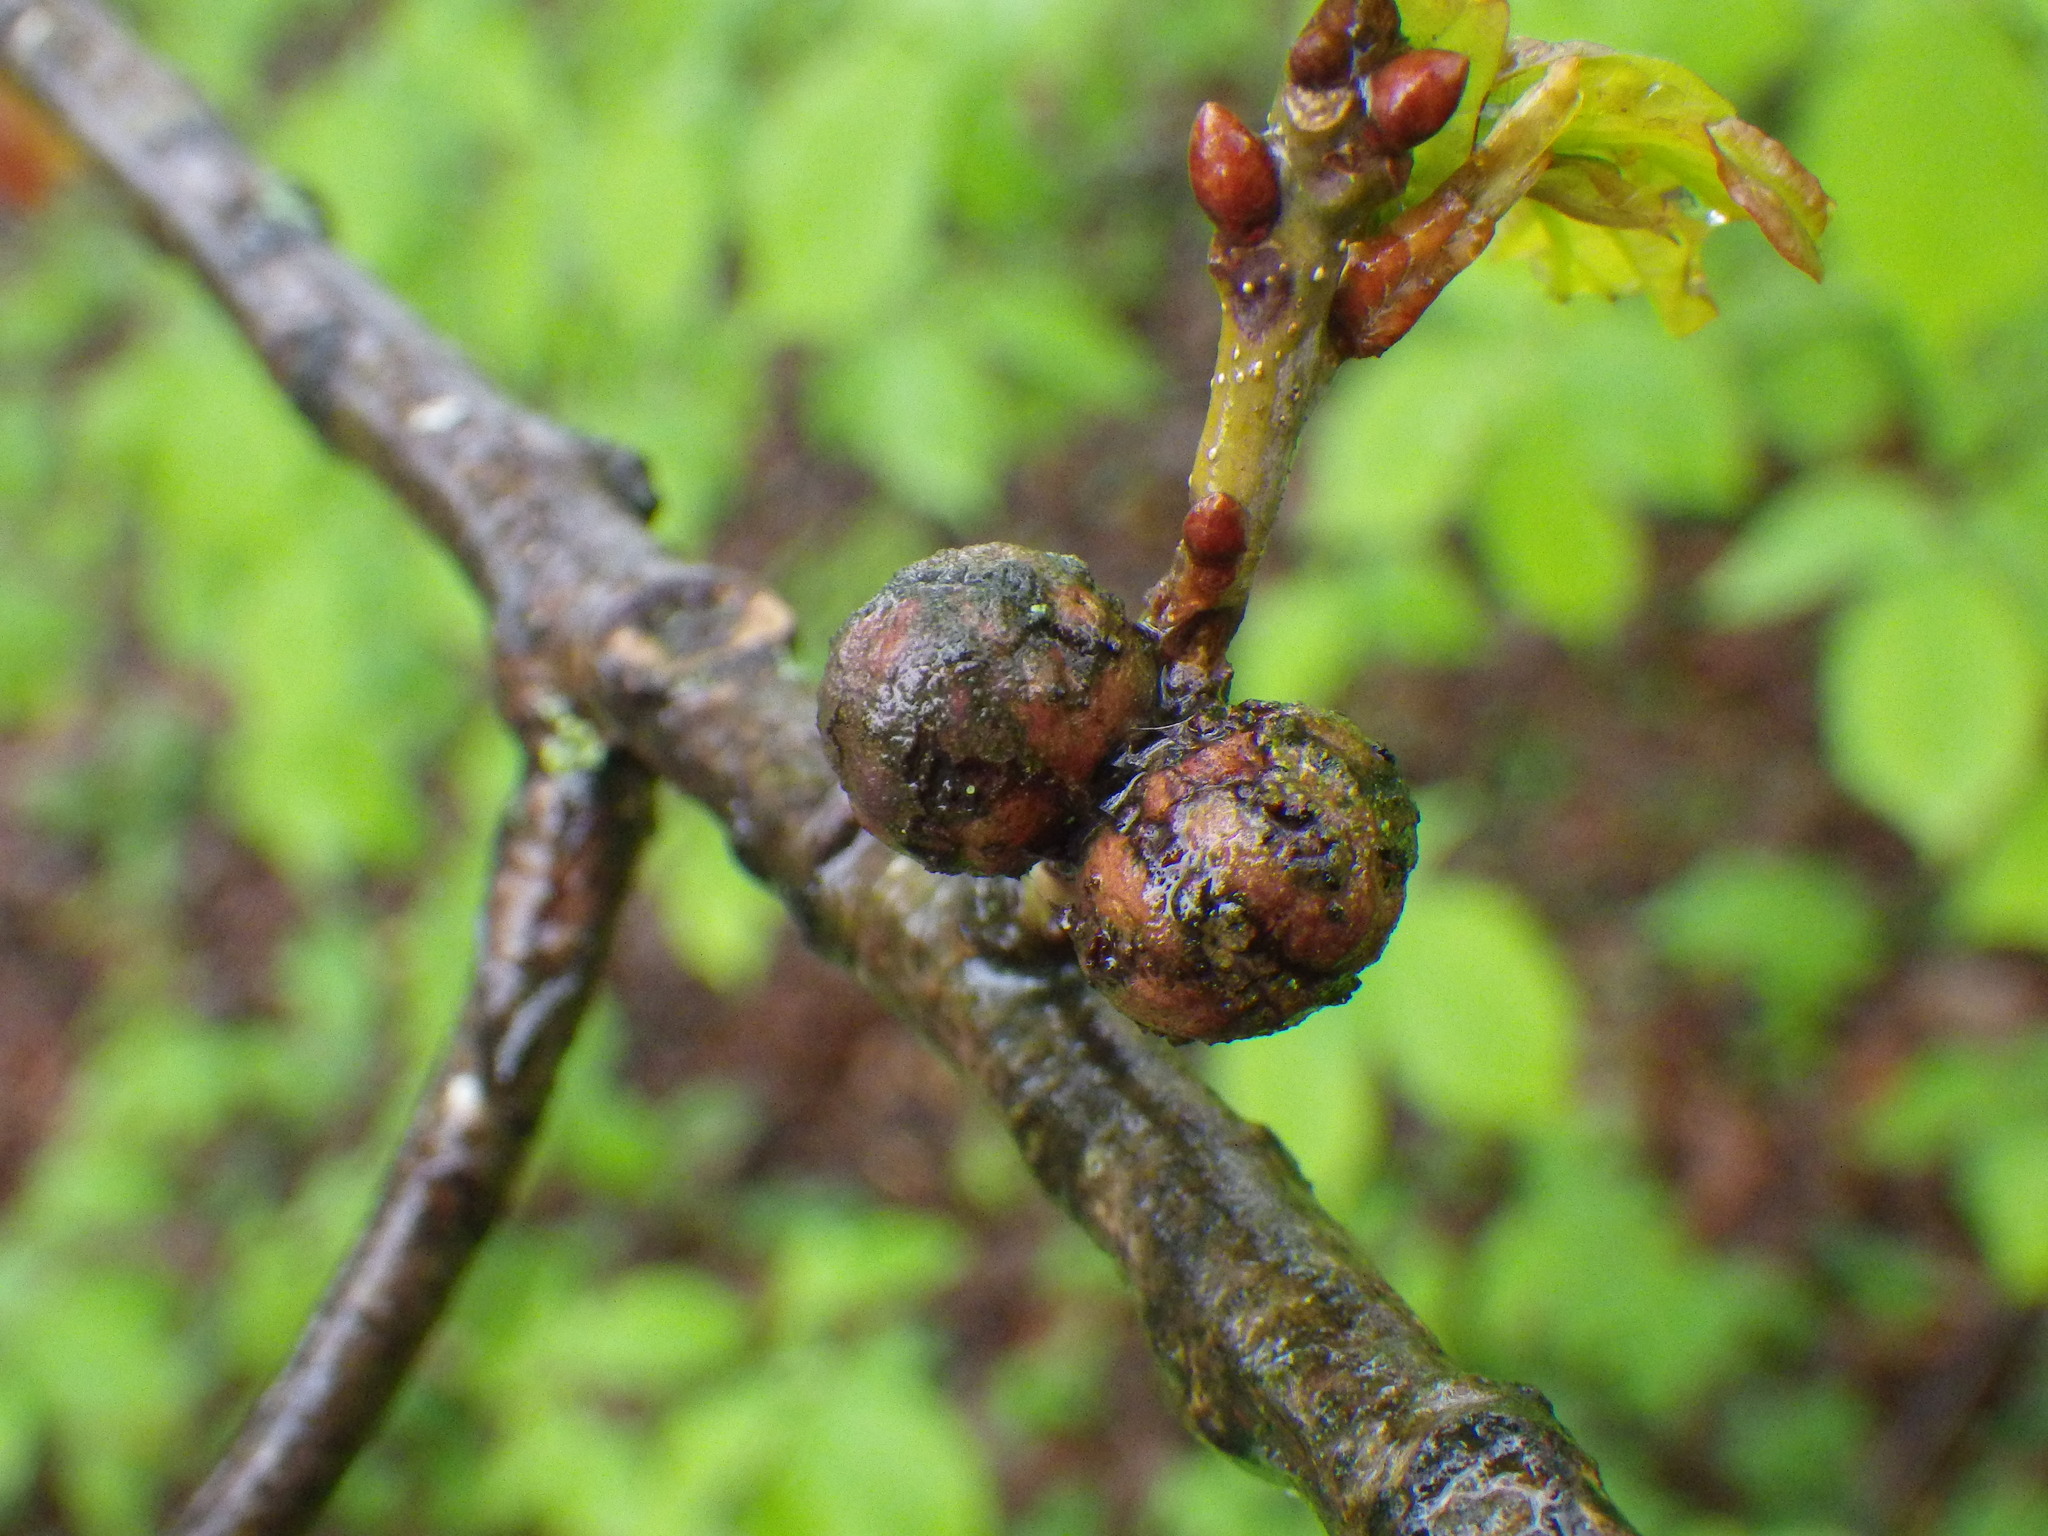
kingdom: Animalia
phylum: Arthropoda
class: Insecta
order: Hymenoptera
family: Cynipidae
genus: Andricus
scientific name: Andricus lignicolus
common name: Cola-nut gall
